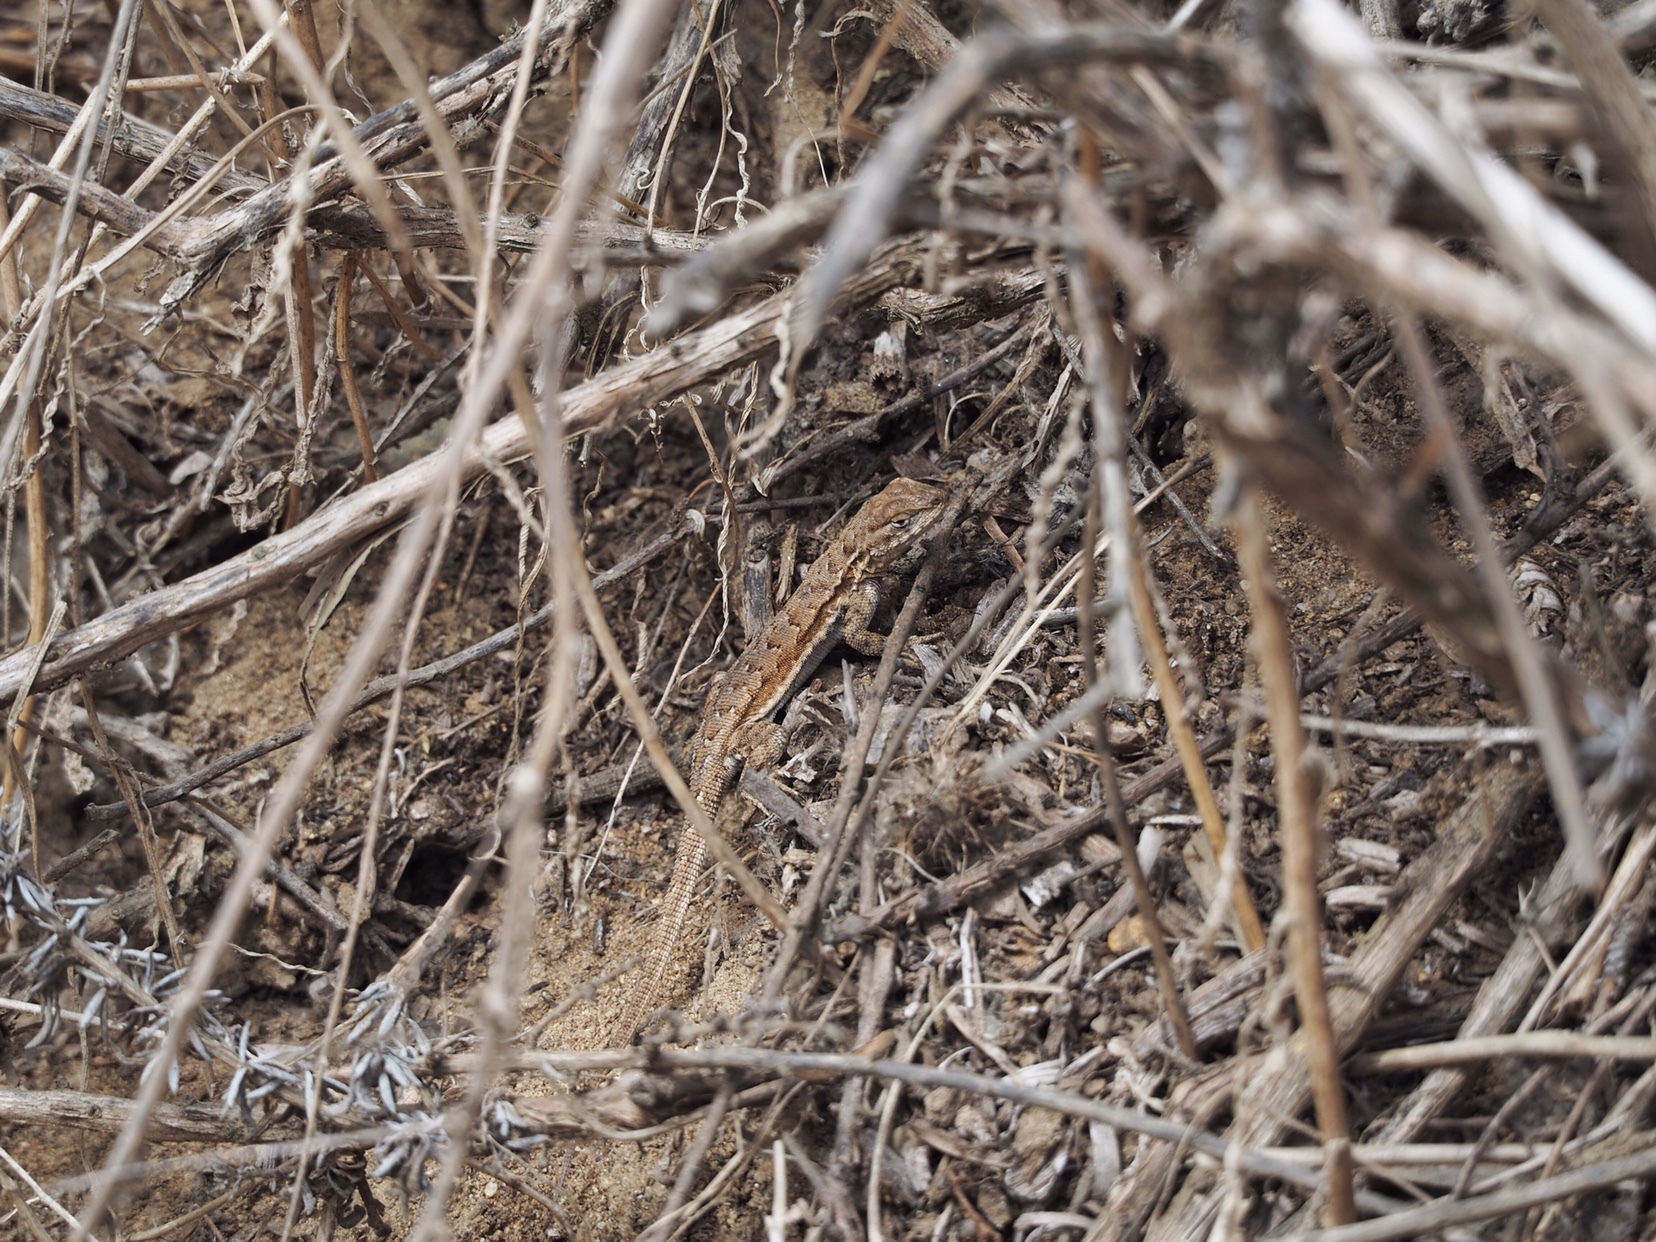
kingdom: Animalia
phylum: Chordata
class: Squamata
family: Phrynosomatidae
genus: Uta
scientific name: Uta stansburiana
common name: Side-blotched lizard
